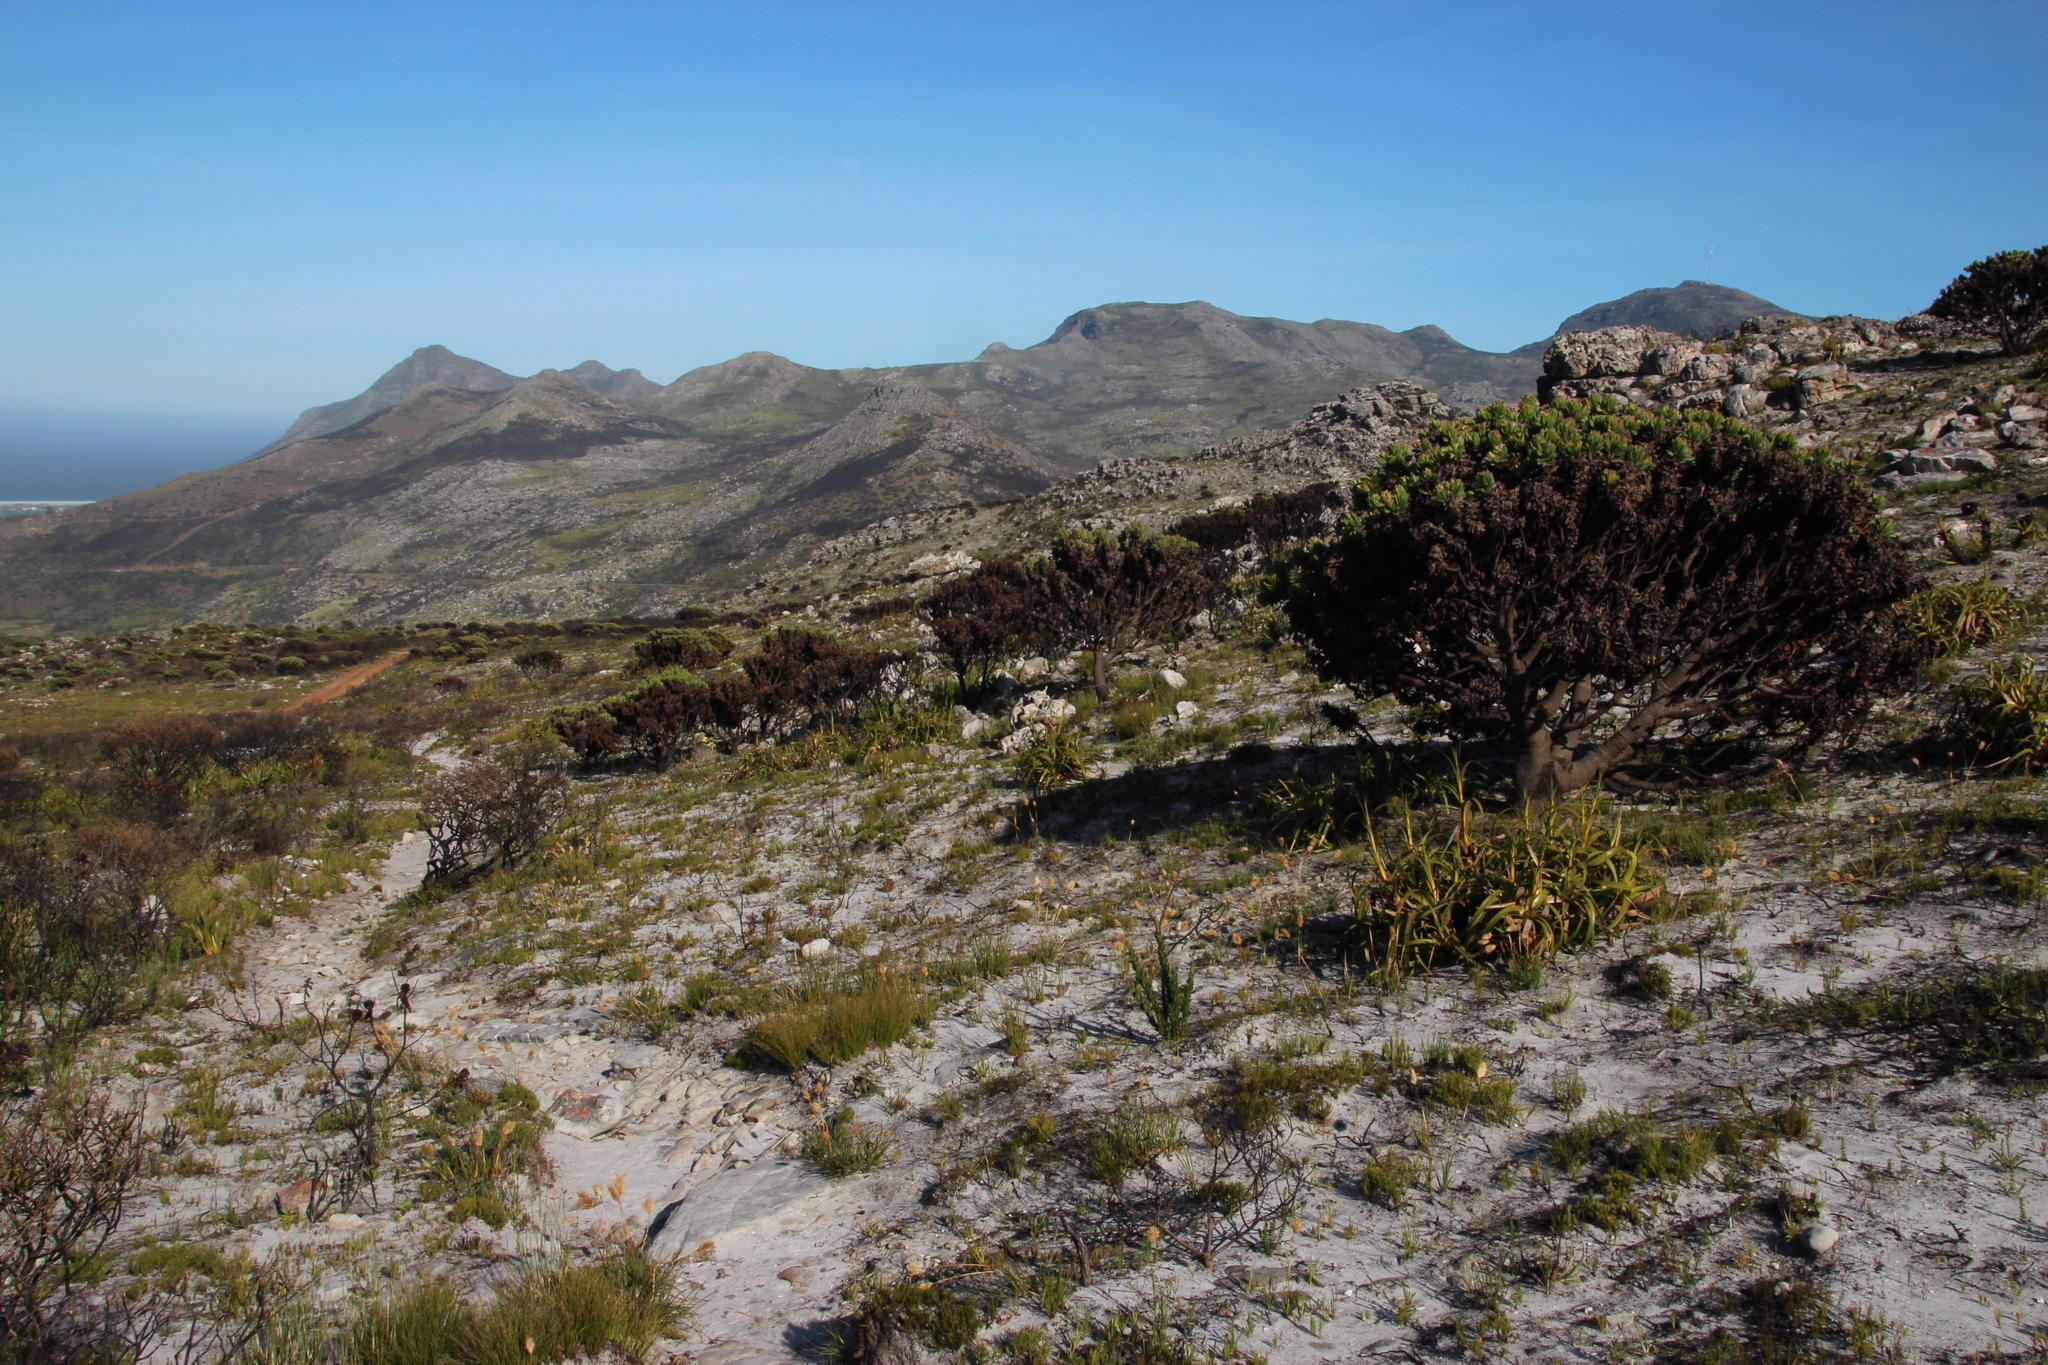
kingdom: Plantae
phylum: Tracheophyta
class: Magnoliopsida
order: Proteales
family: Proteaceae
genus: Mimetes
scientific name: Mimetes fimbriifolius
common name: Fringed bottlebrush
